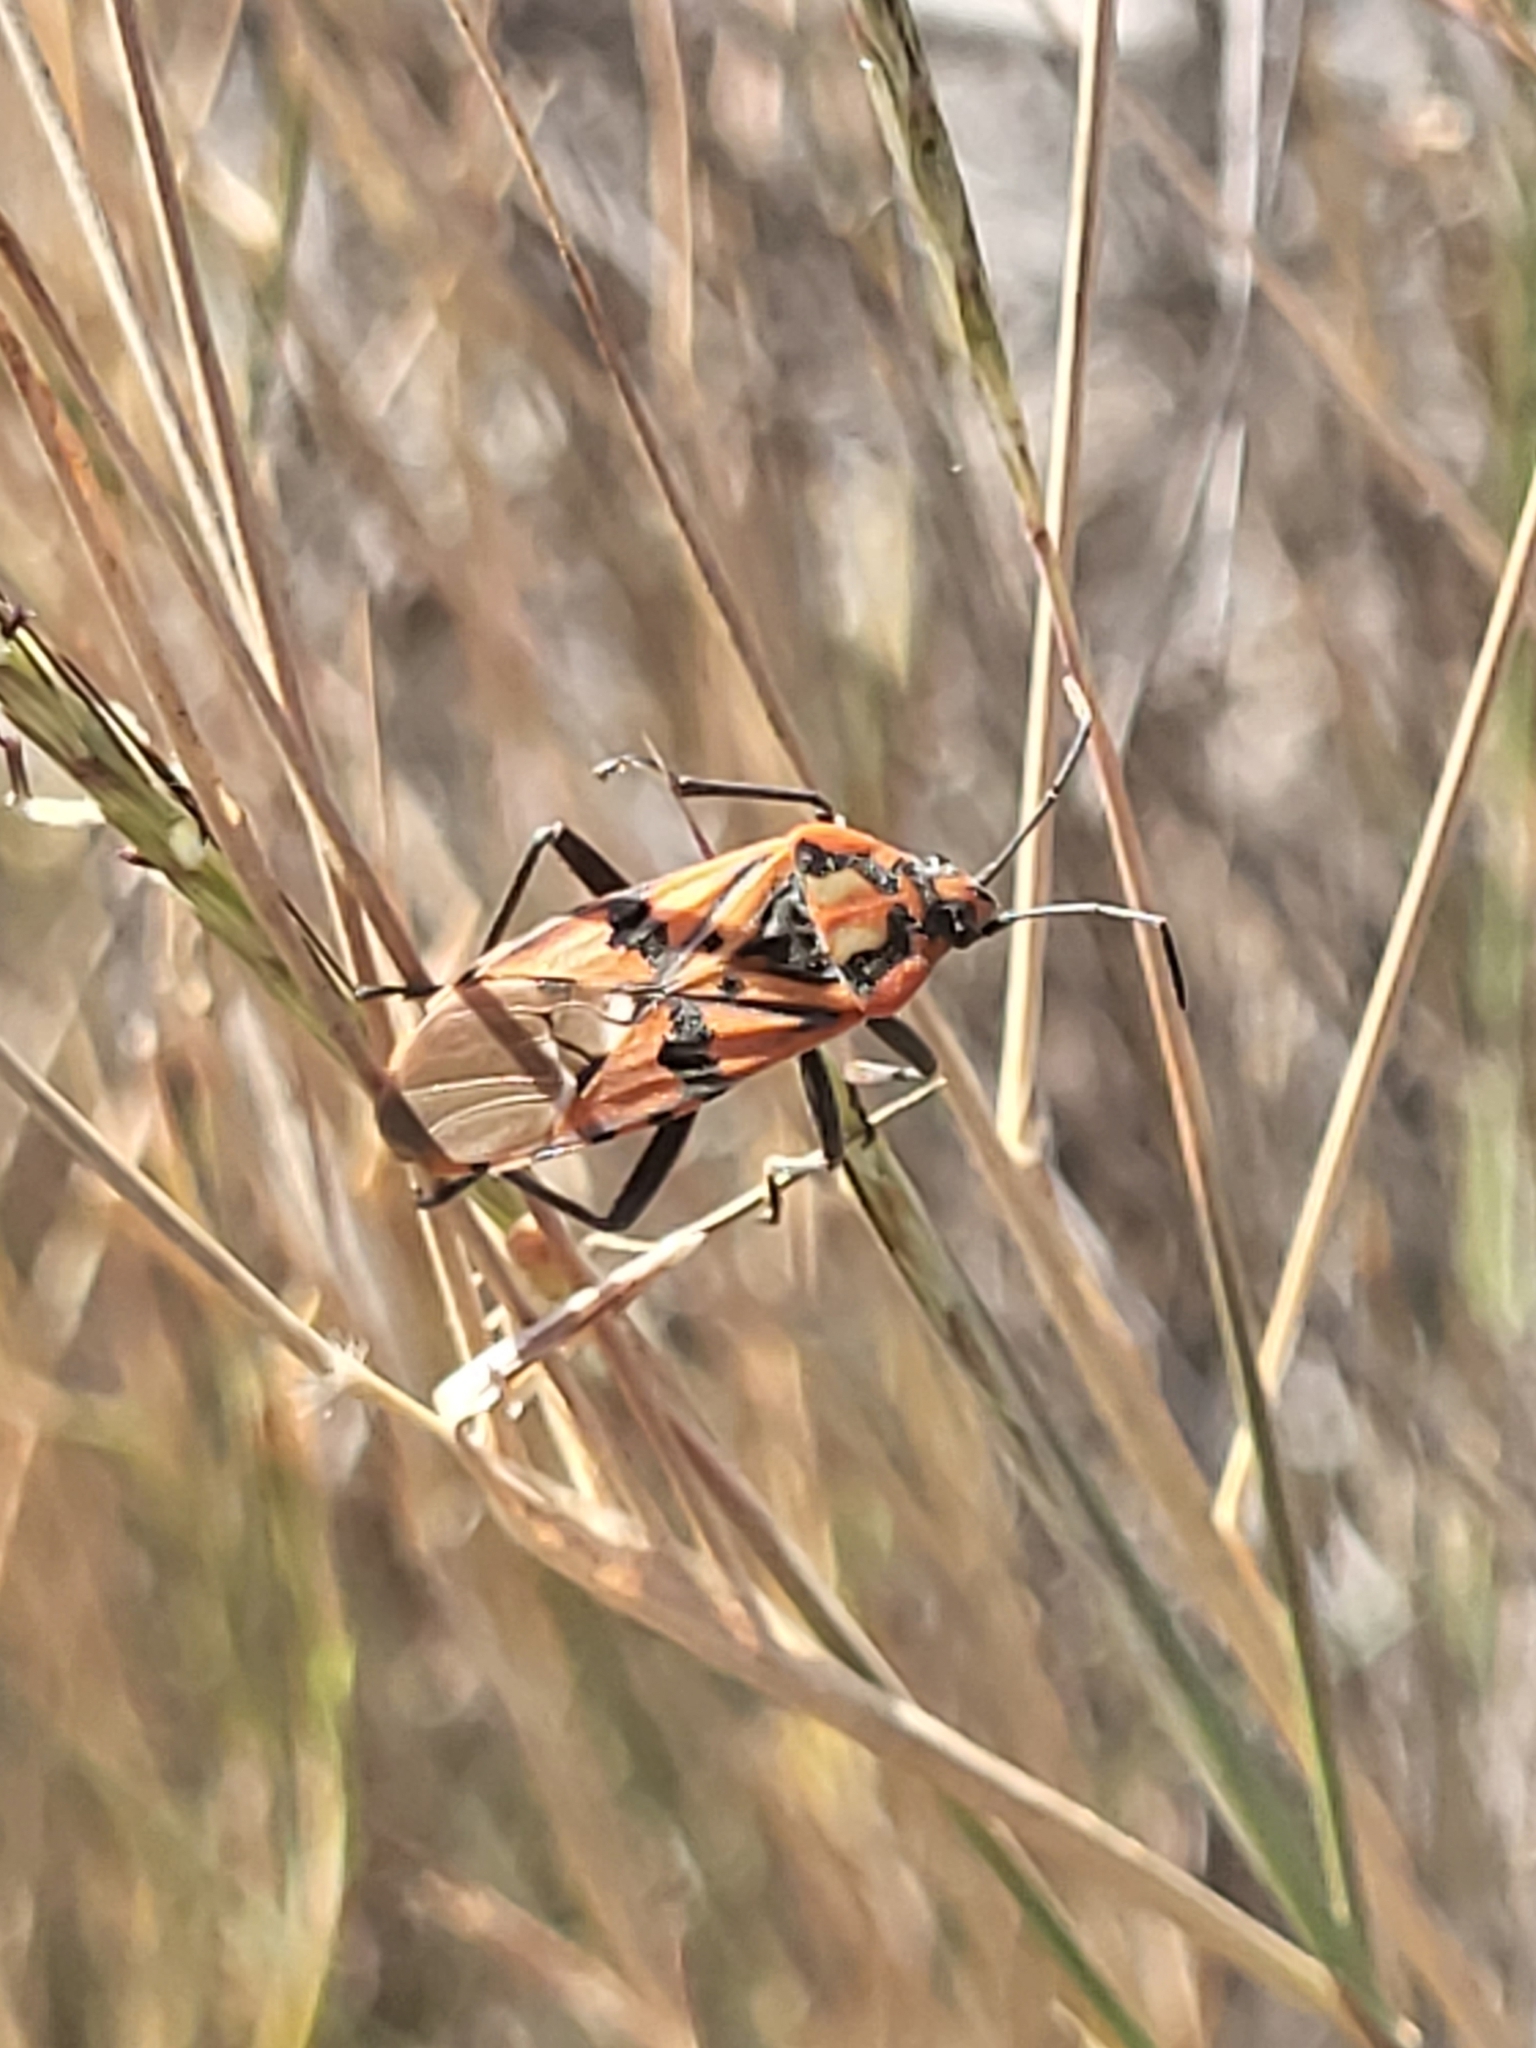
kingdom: Animalia
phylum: Arthropoda
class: Insecta
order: Hemiptera
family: Lygaeidae
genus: Spilostethus
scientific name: Spilostethus pandurus
